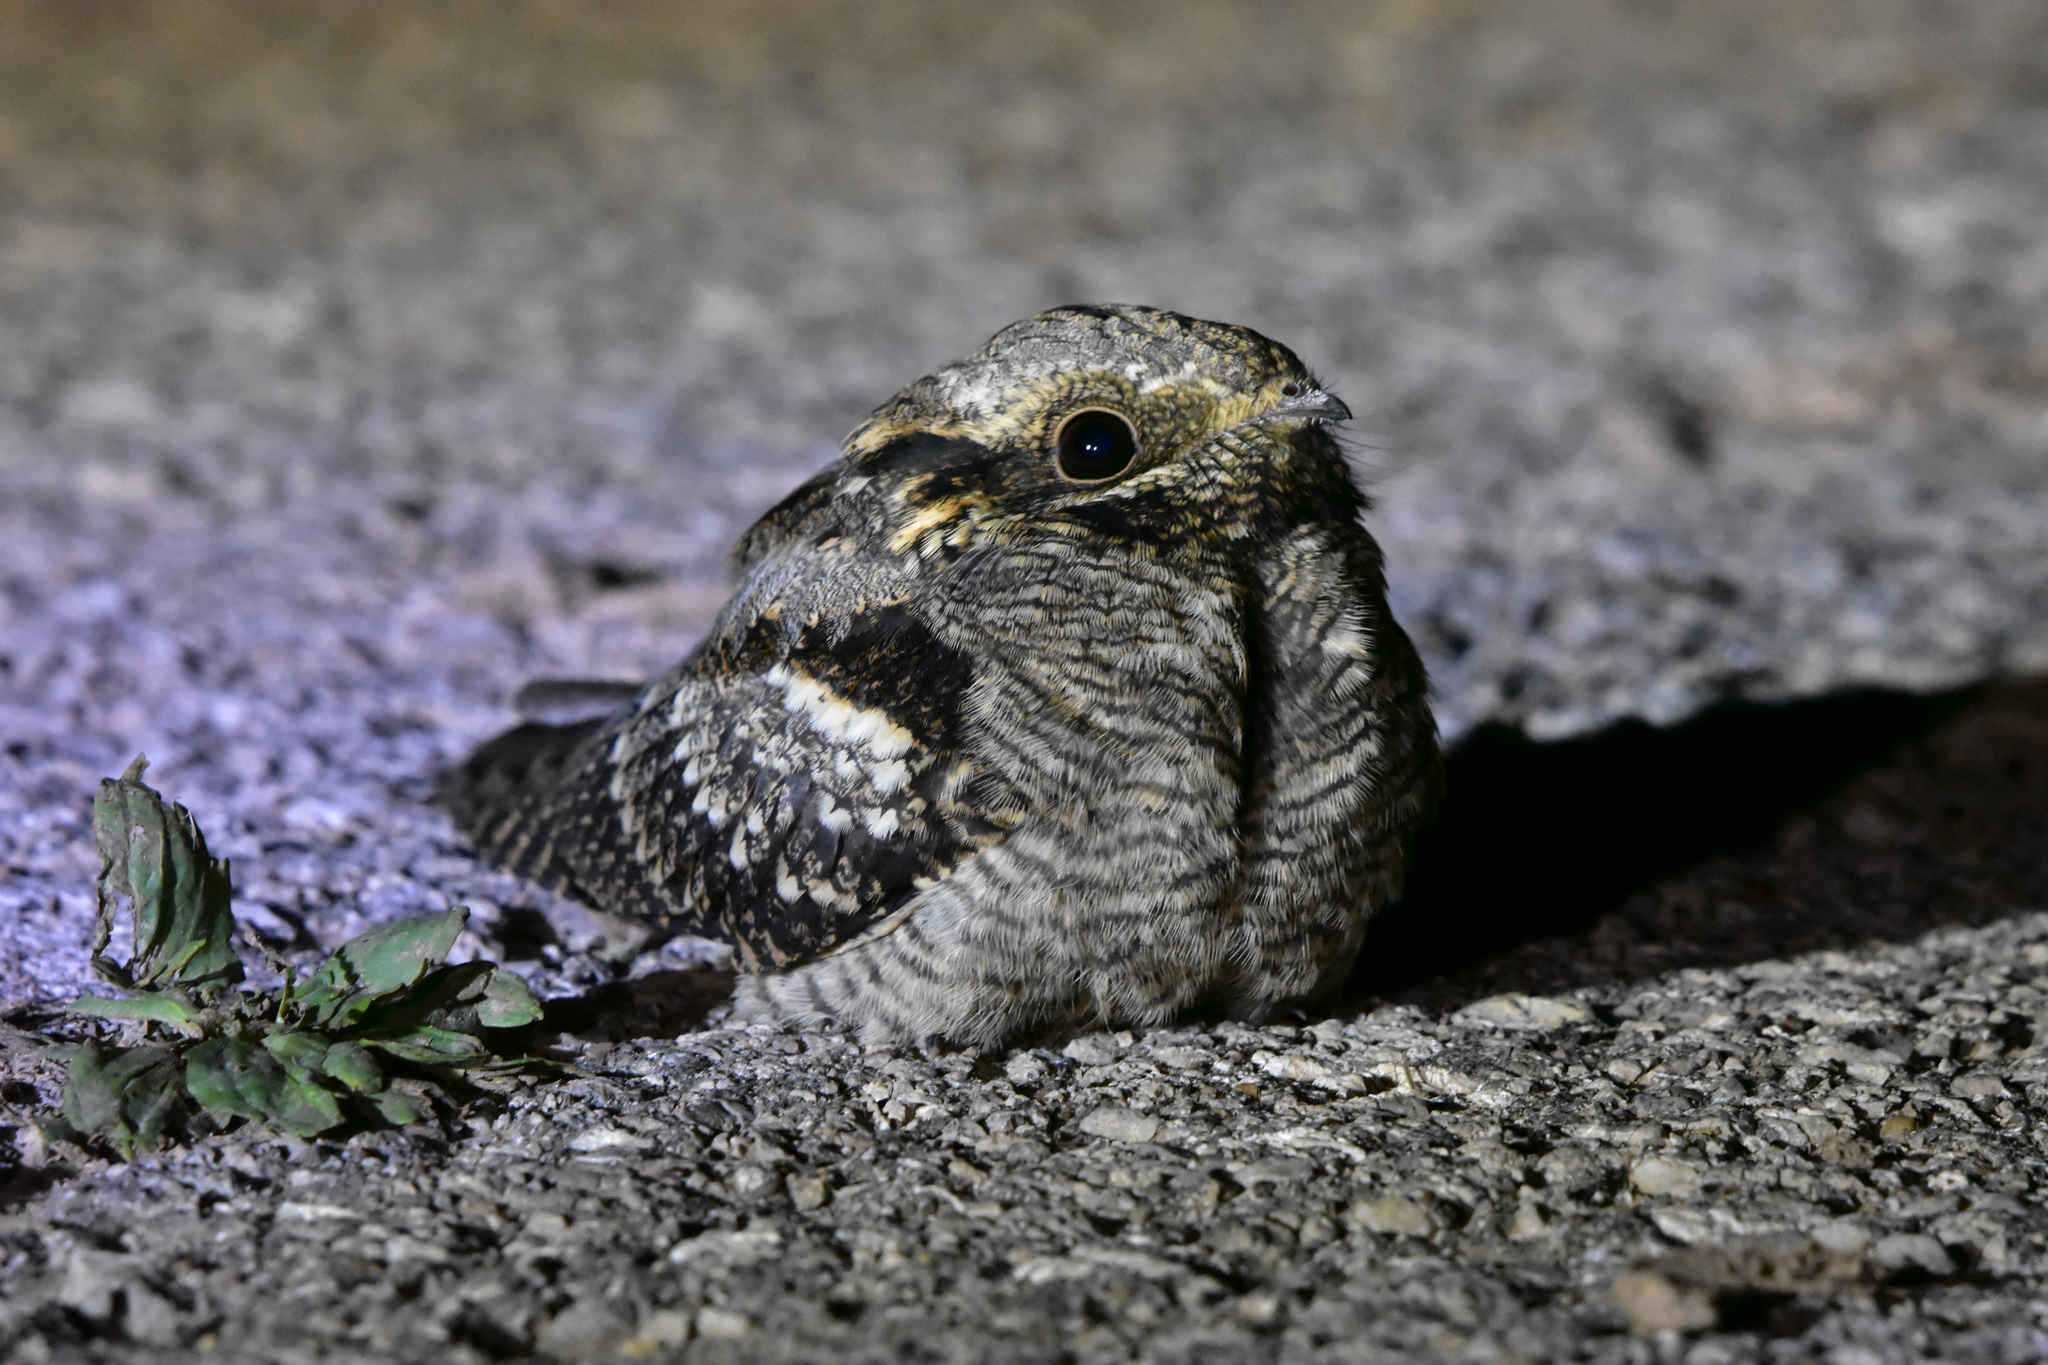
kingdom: Animalia
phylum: Chordata
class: Aves
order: Caprimulgiformes
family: Caprimulgidae
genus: Caprimulgus
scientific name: Caprimulgus europaeus
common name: European nightjar
